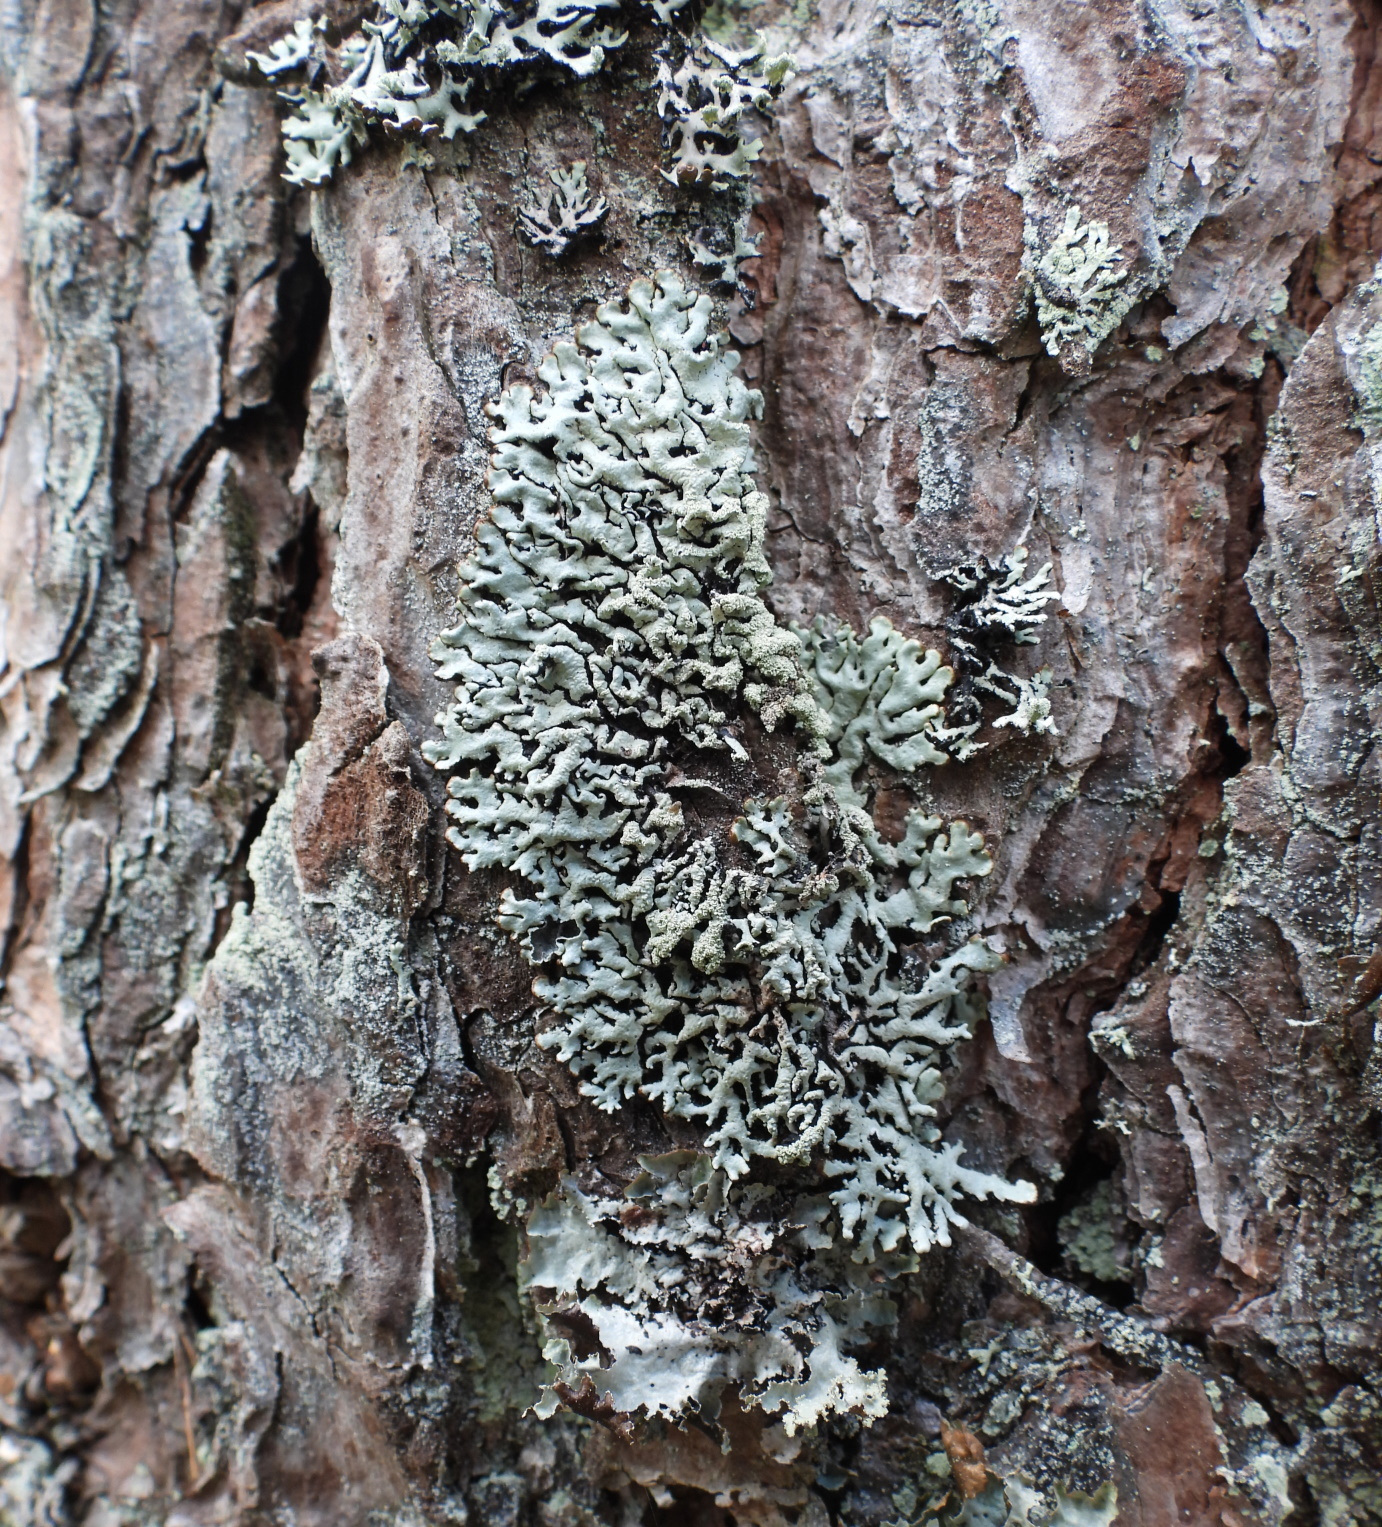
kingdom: Fungi
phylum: Ascomycota
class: Lecanoromycetes
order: Lecanorales
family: Parmeliaceae
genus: Hypogymnia
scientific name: Hypogymnia farinacea
